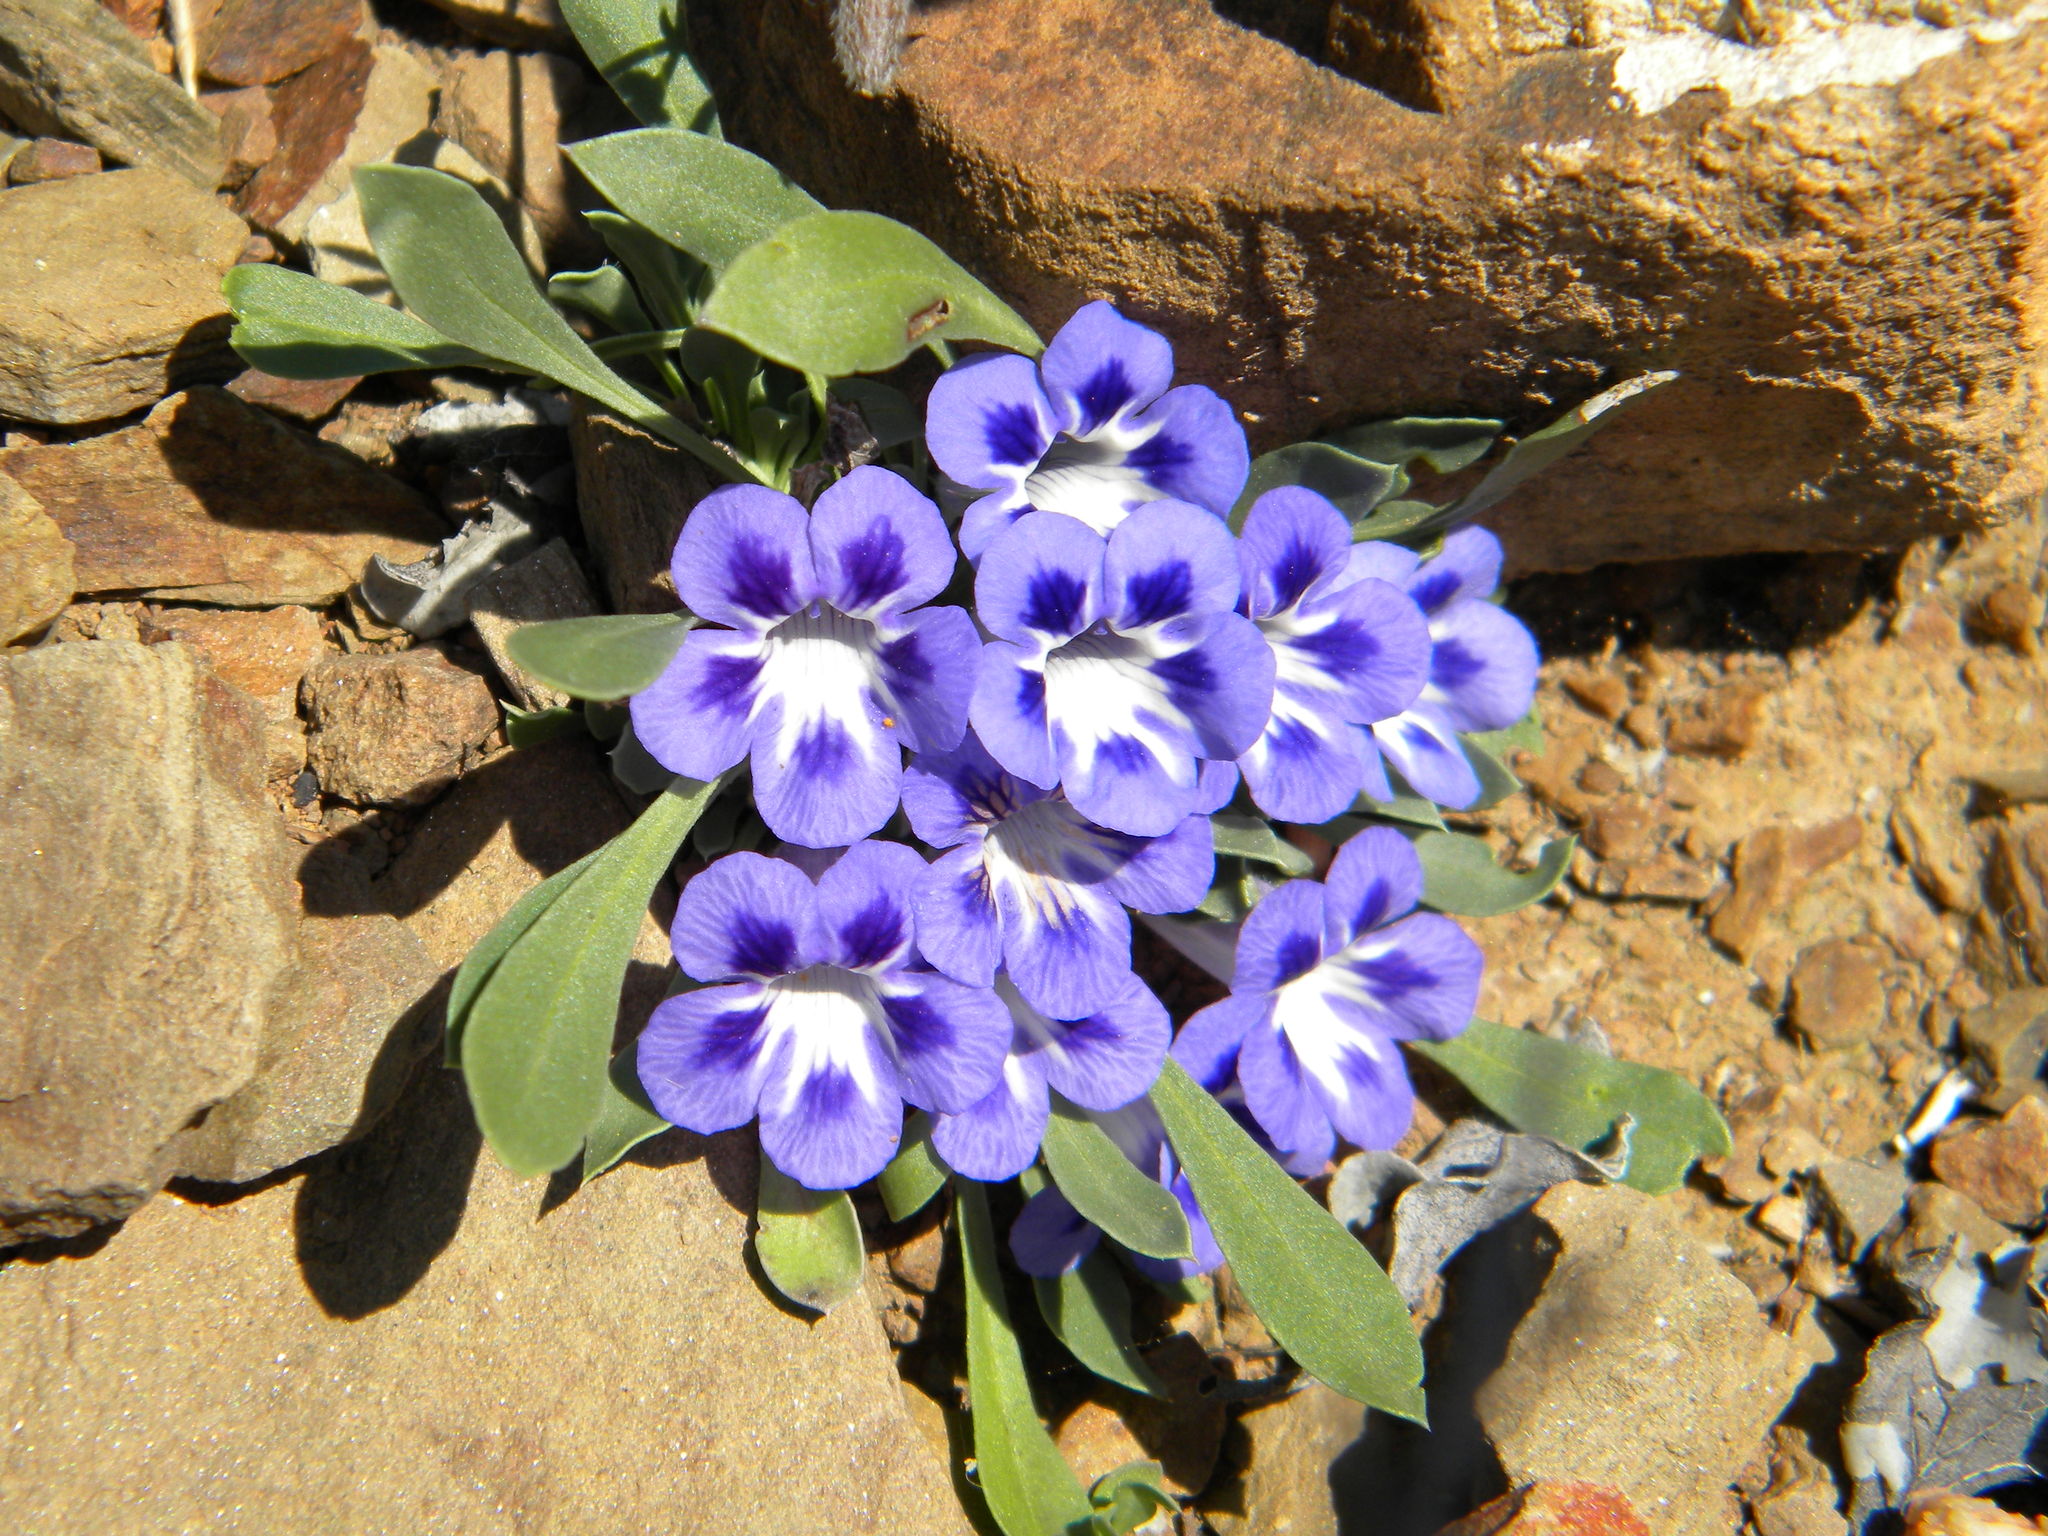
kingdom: Plantae
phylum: Tracheophyta
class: Magnoliopsida
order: Lamiales
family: Scrophulariaceae
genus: Aptosimum
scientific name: Aptosimum indivisum
